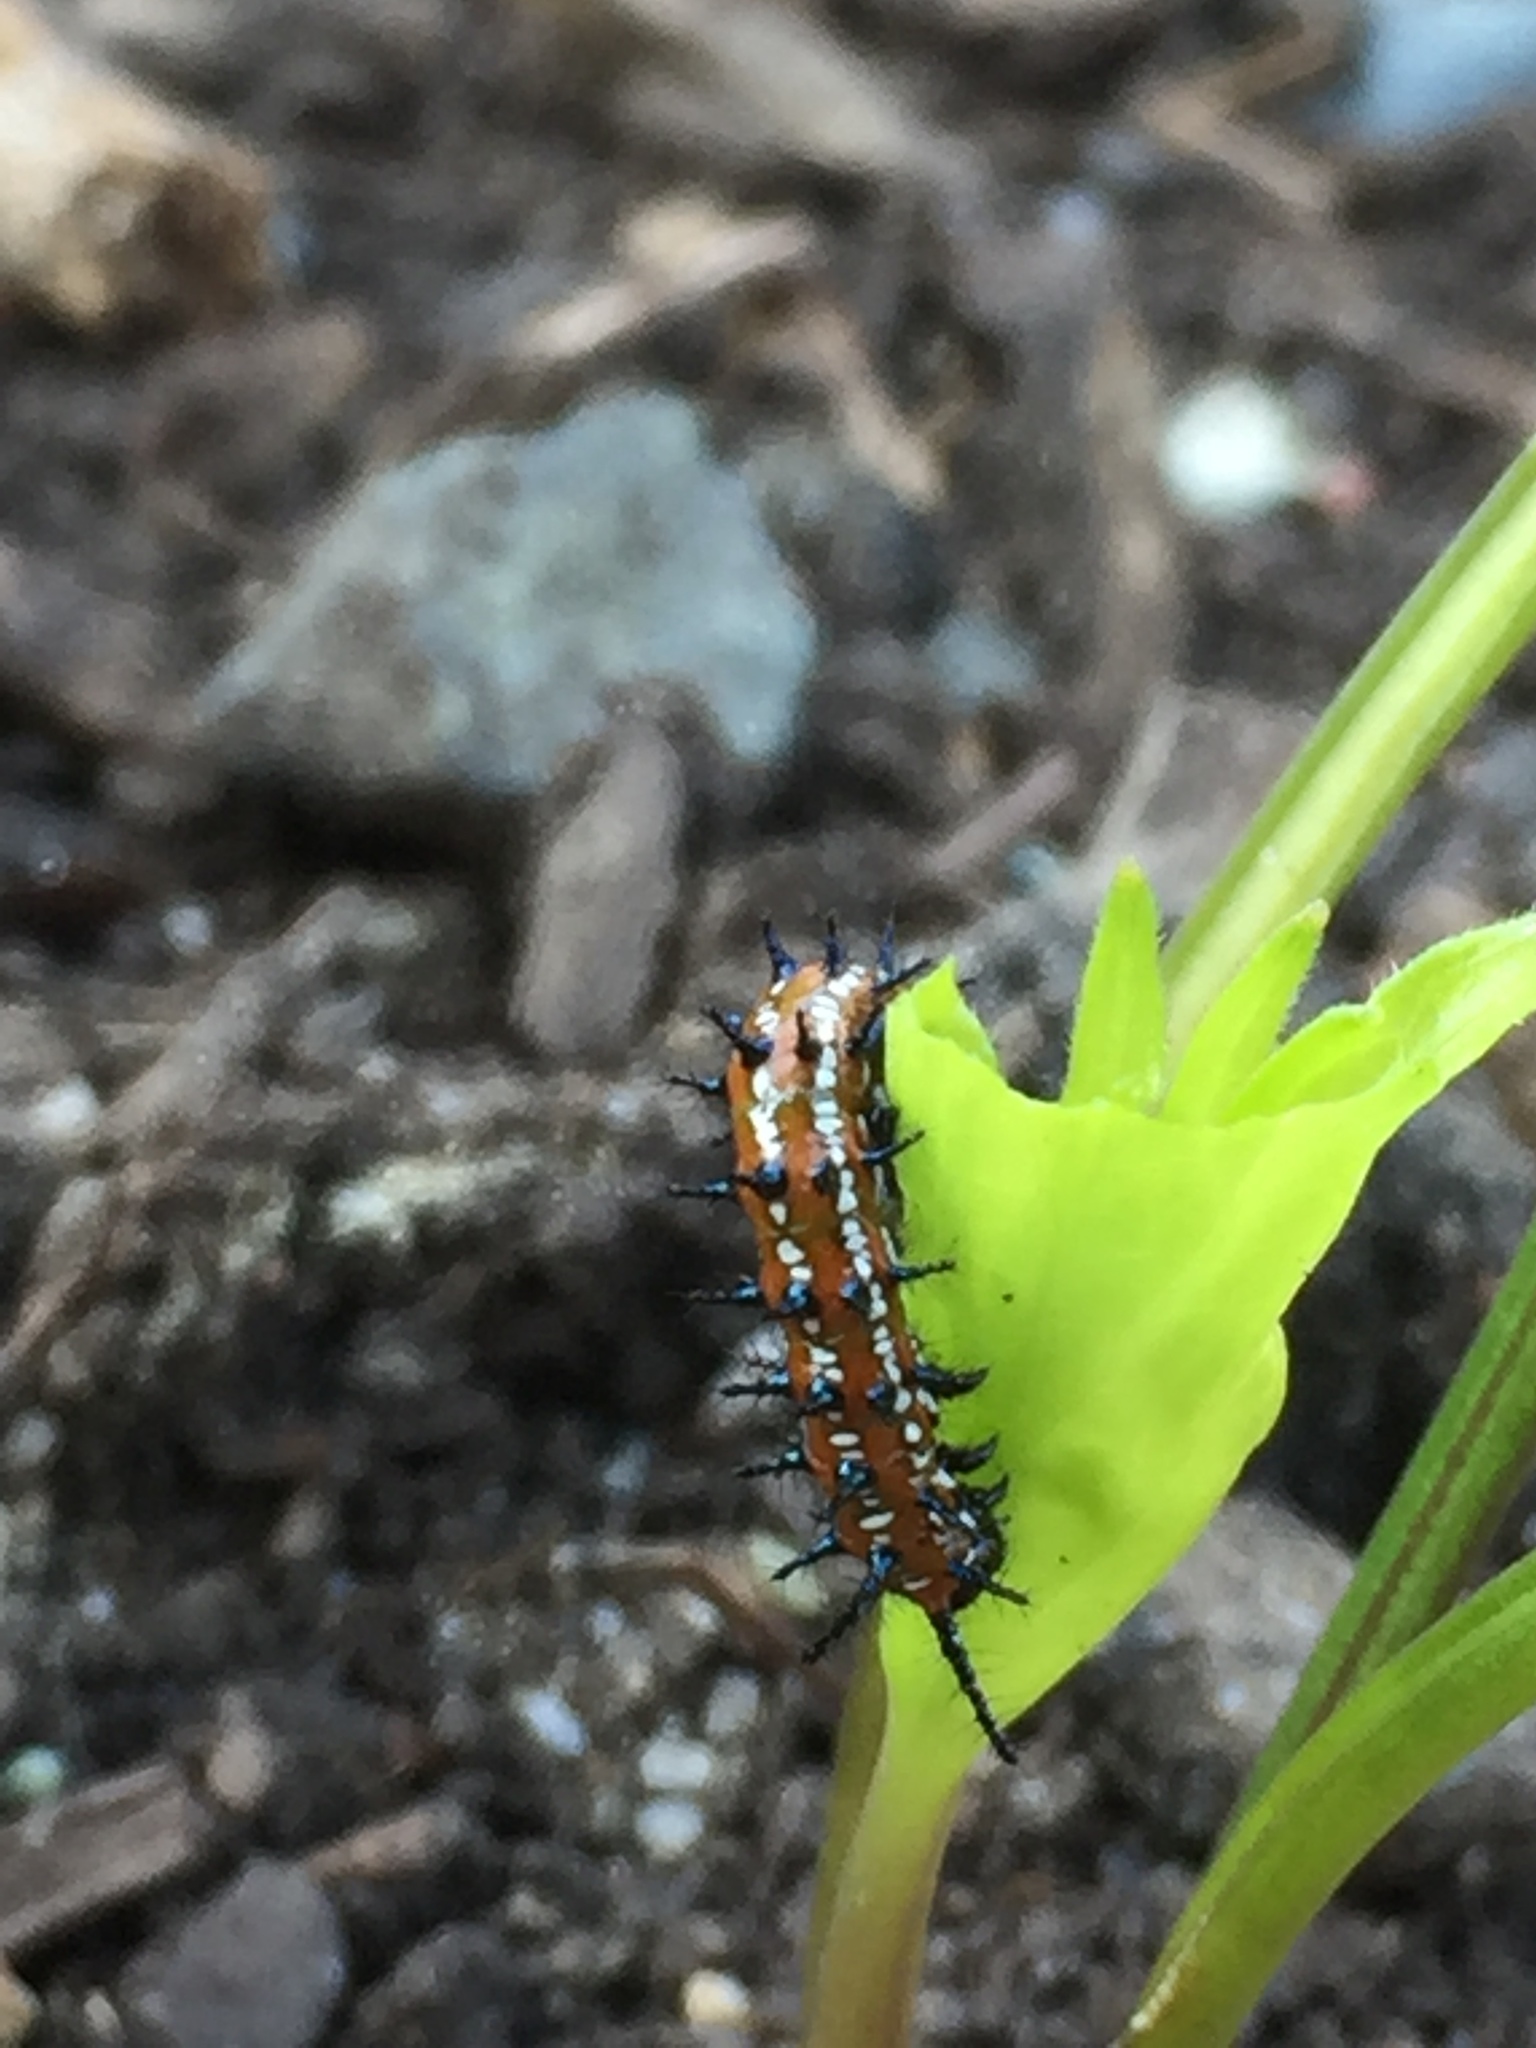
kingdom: Animalia
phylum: Arthropoda
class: Insecta
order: Lepidoptera
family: Nymphalidae
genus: Euptoieta
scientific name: Euptoieta claudia
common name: Variegated fritillary
